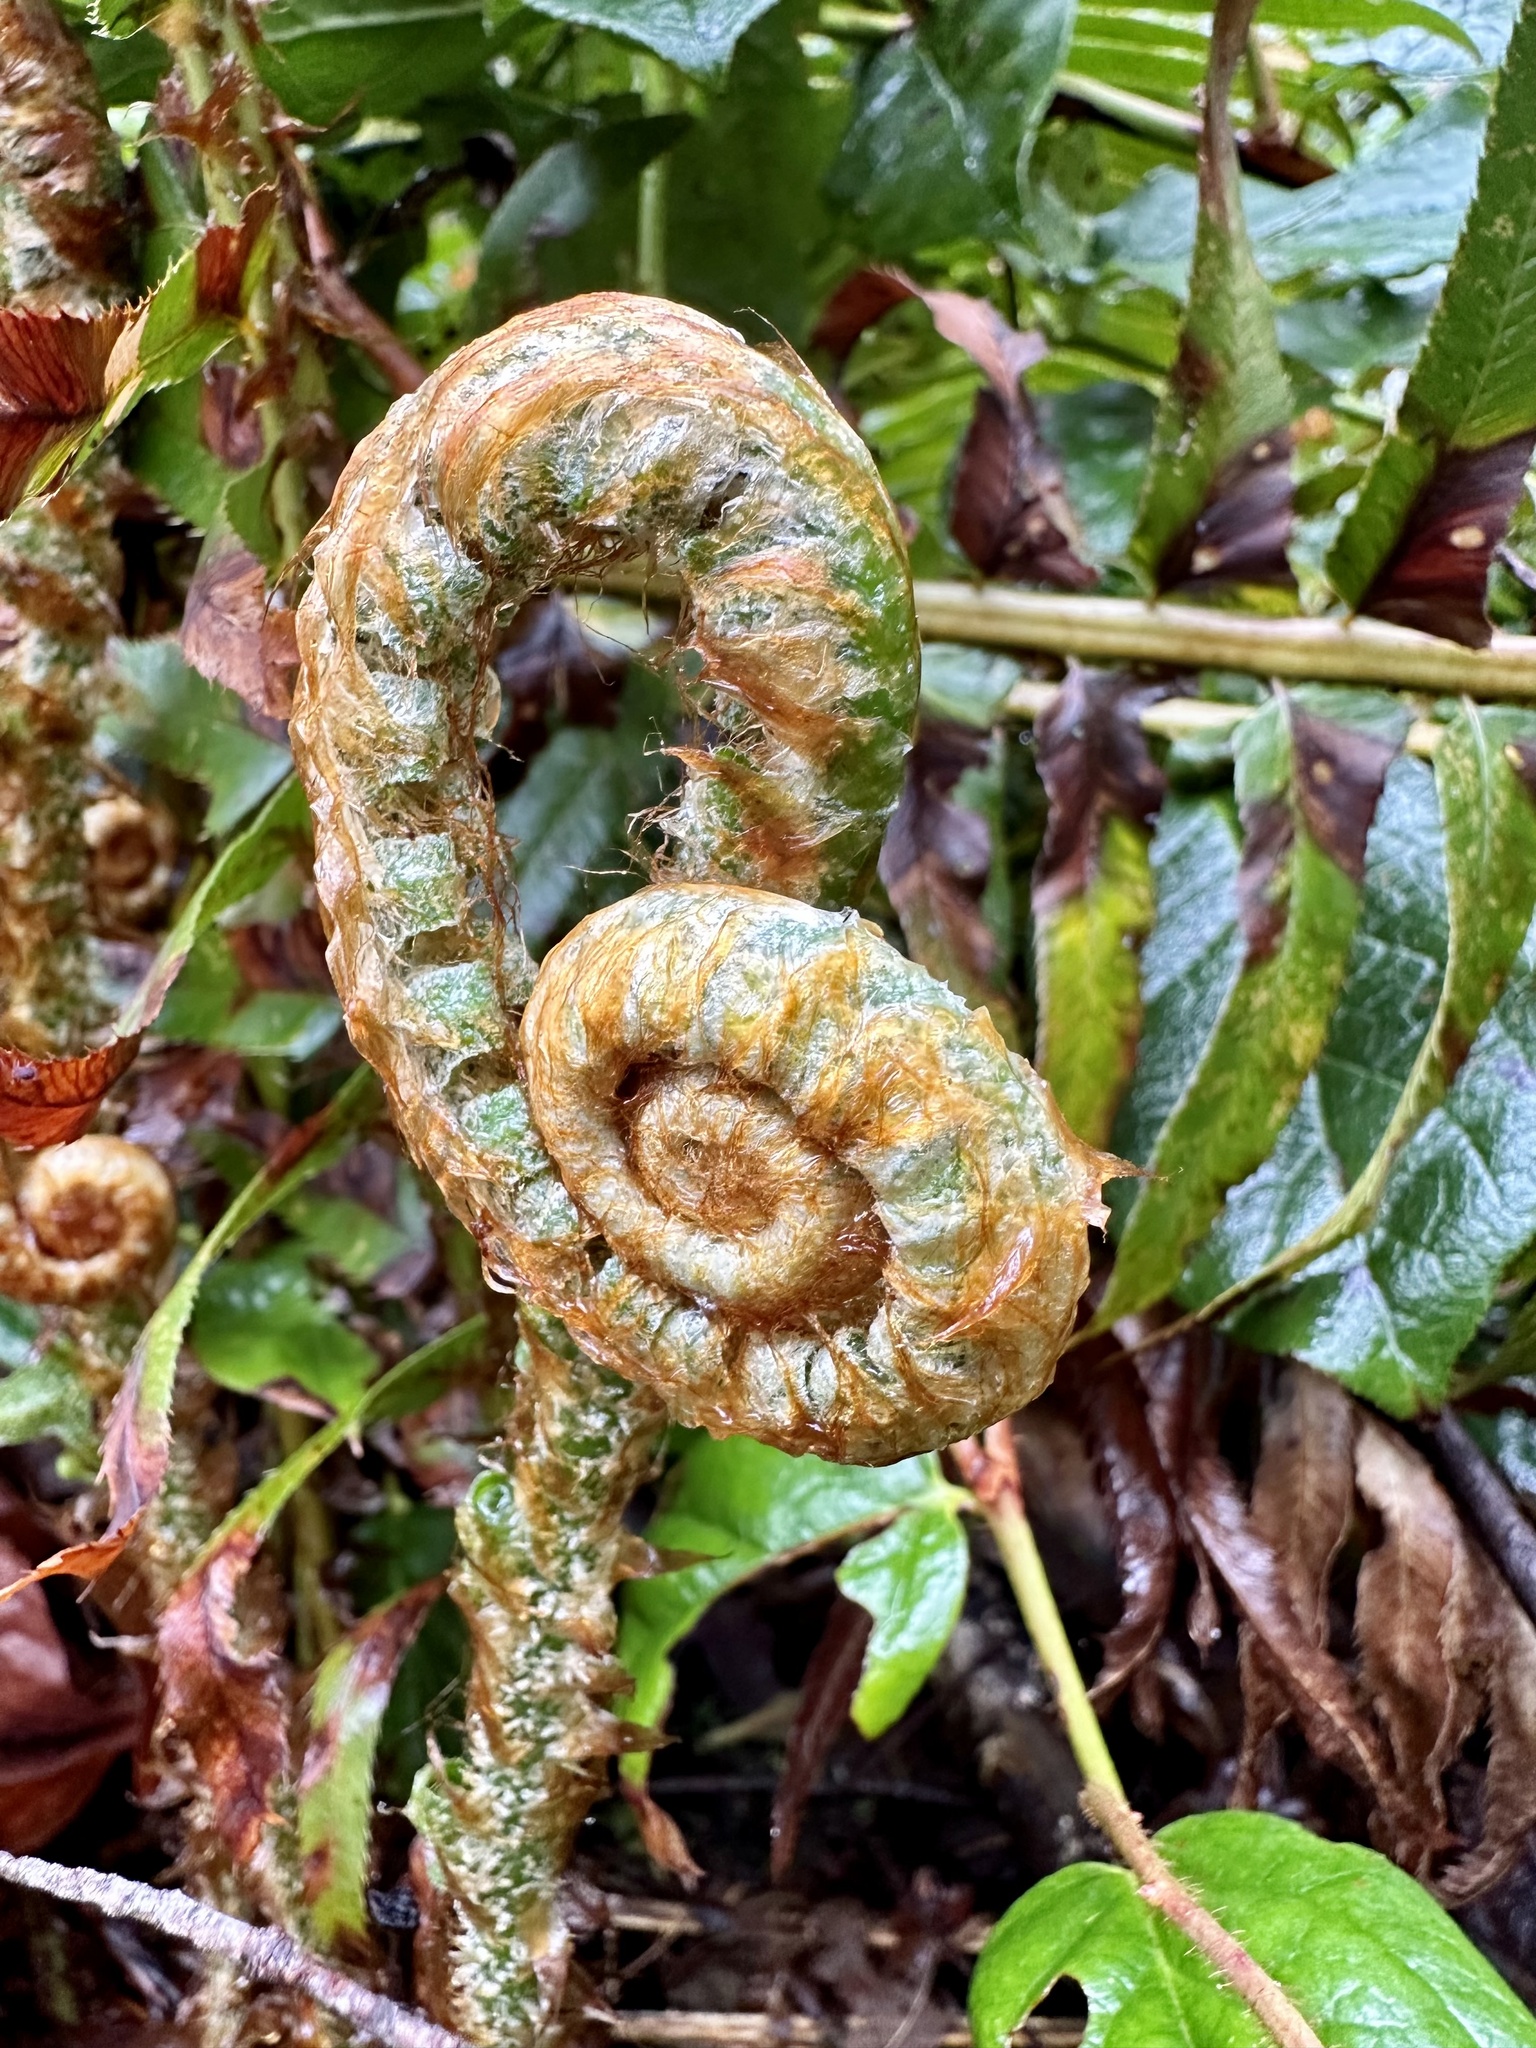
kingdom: Plantae
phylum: Tracheophyta
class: Polypodiopsida
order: Polypodiales
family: Dryopteridaceae
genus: Polystichum
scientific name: Polystichum munitum
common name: Western sword-fern
